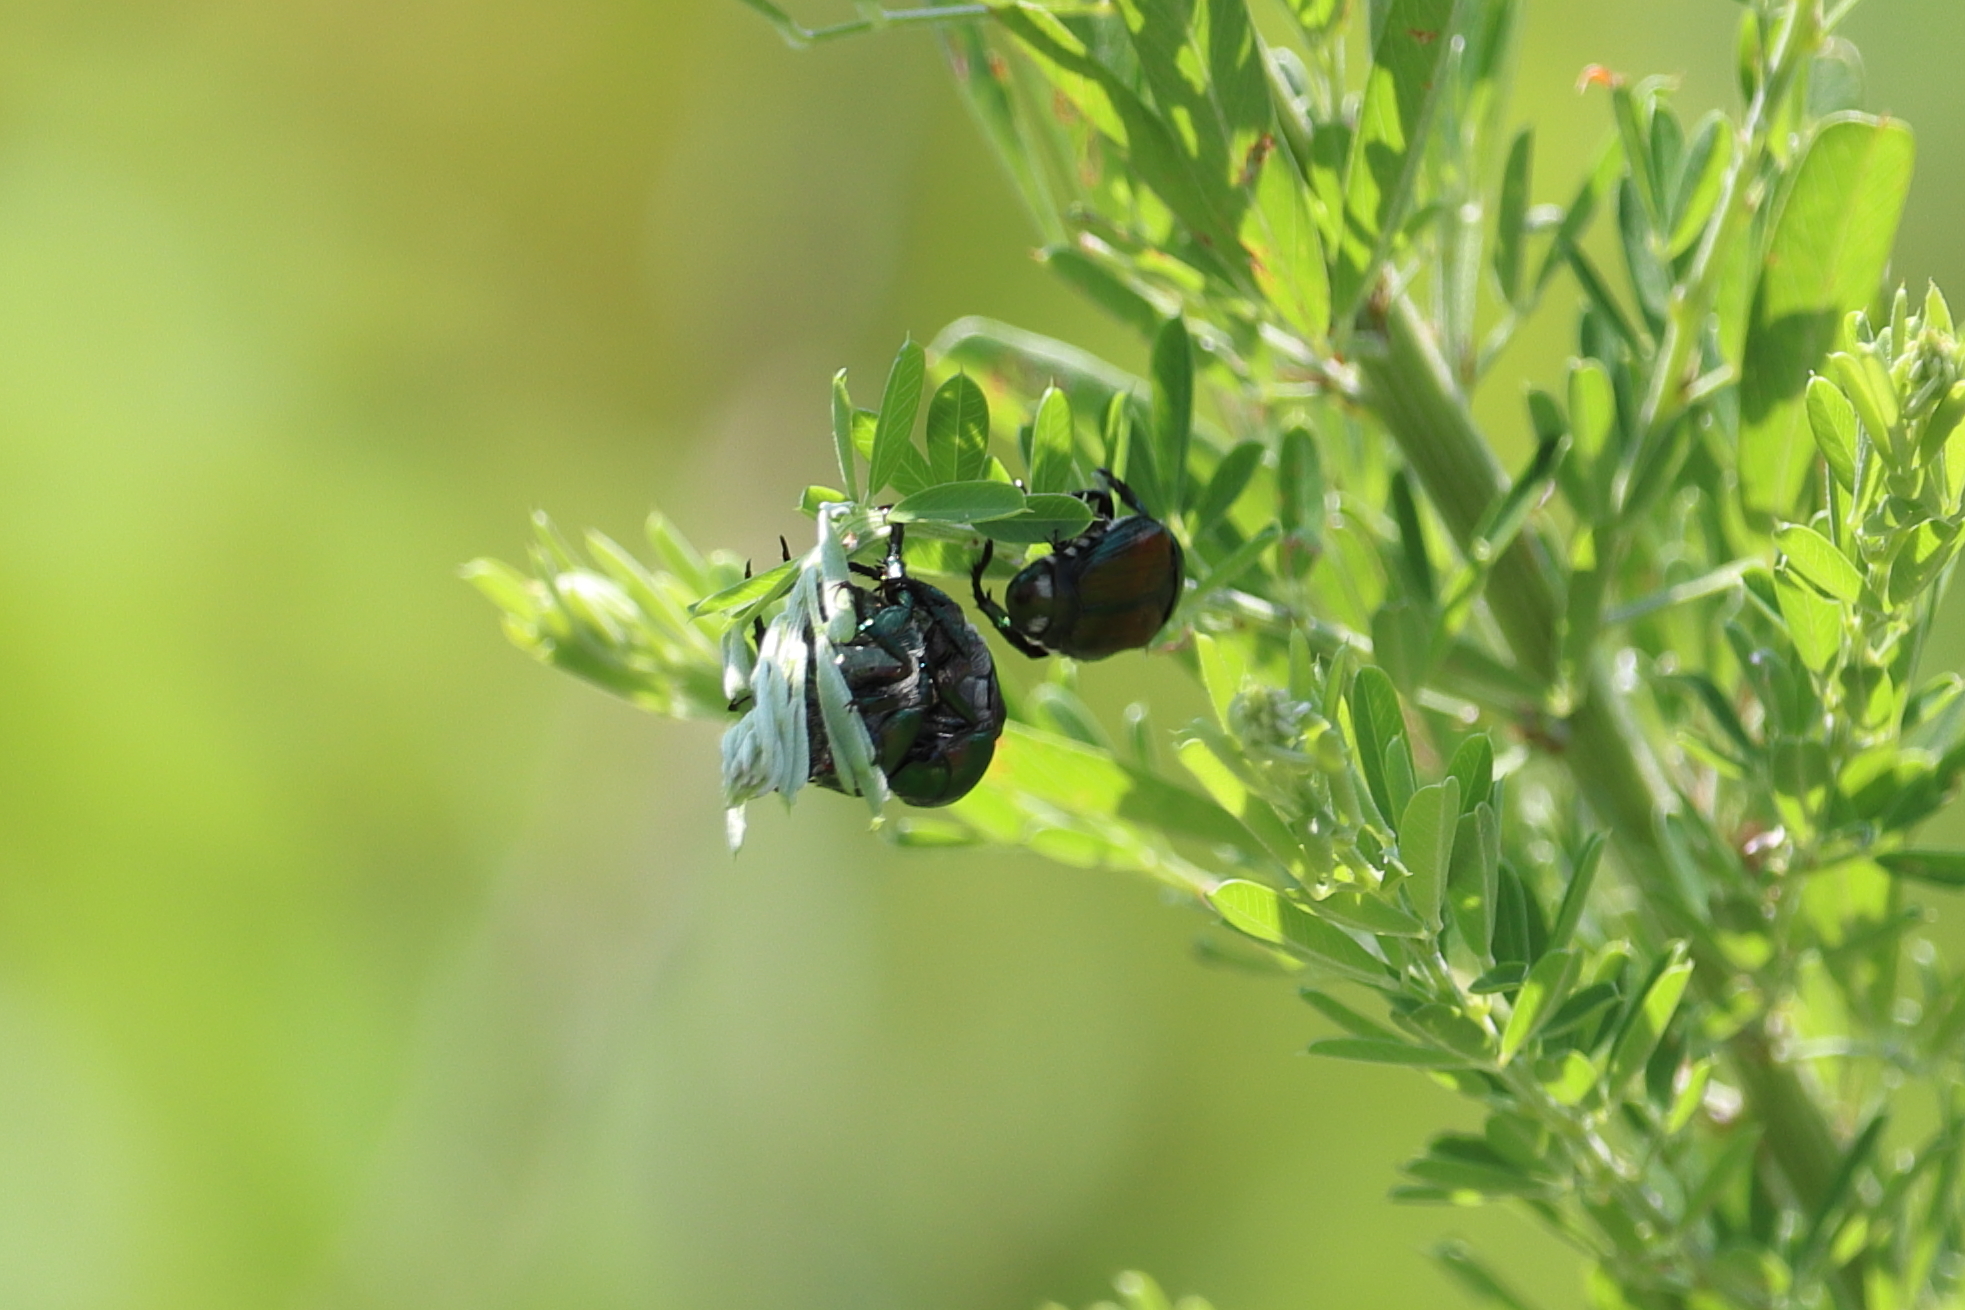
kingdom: Animalia
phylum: Arthropoda
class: Insecta
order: Coleoptera
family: Scarabaeidae
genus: Popillia
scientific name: Popillia japonica
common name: Japanese beetle
